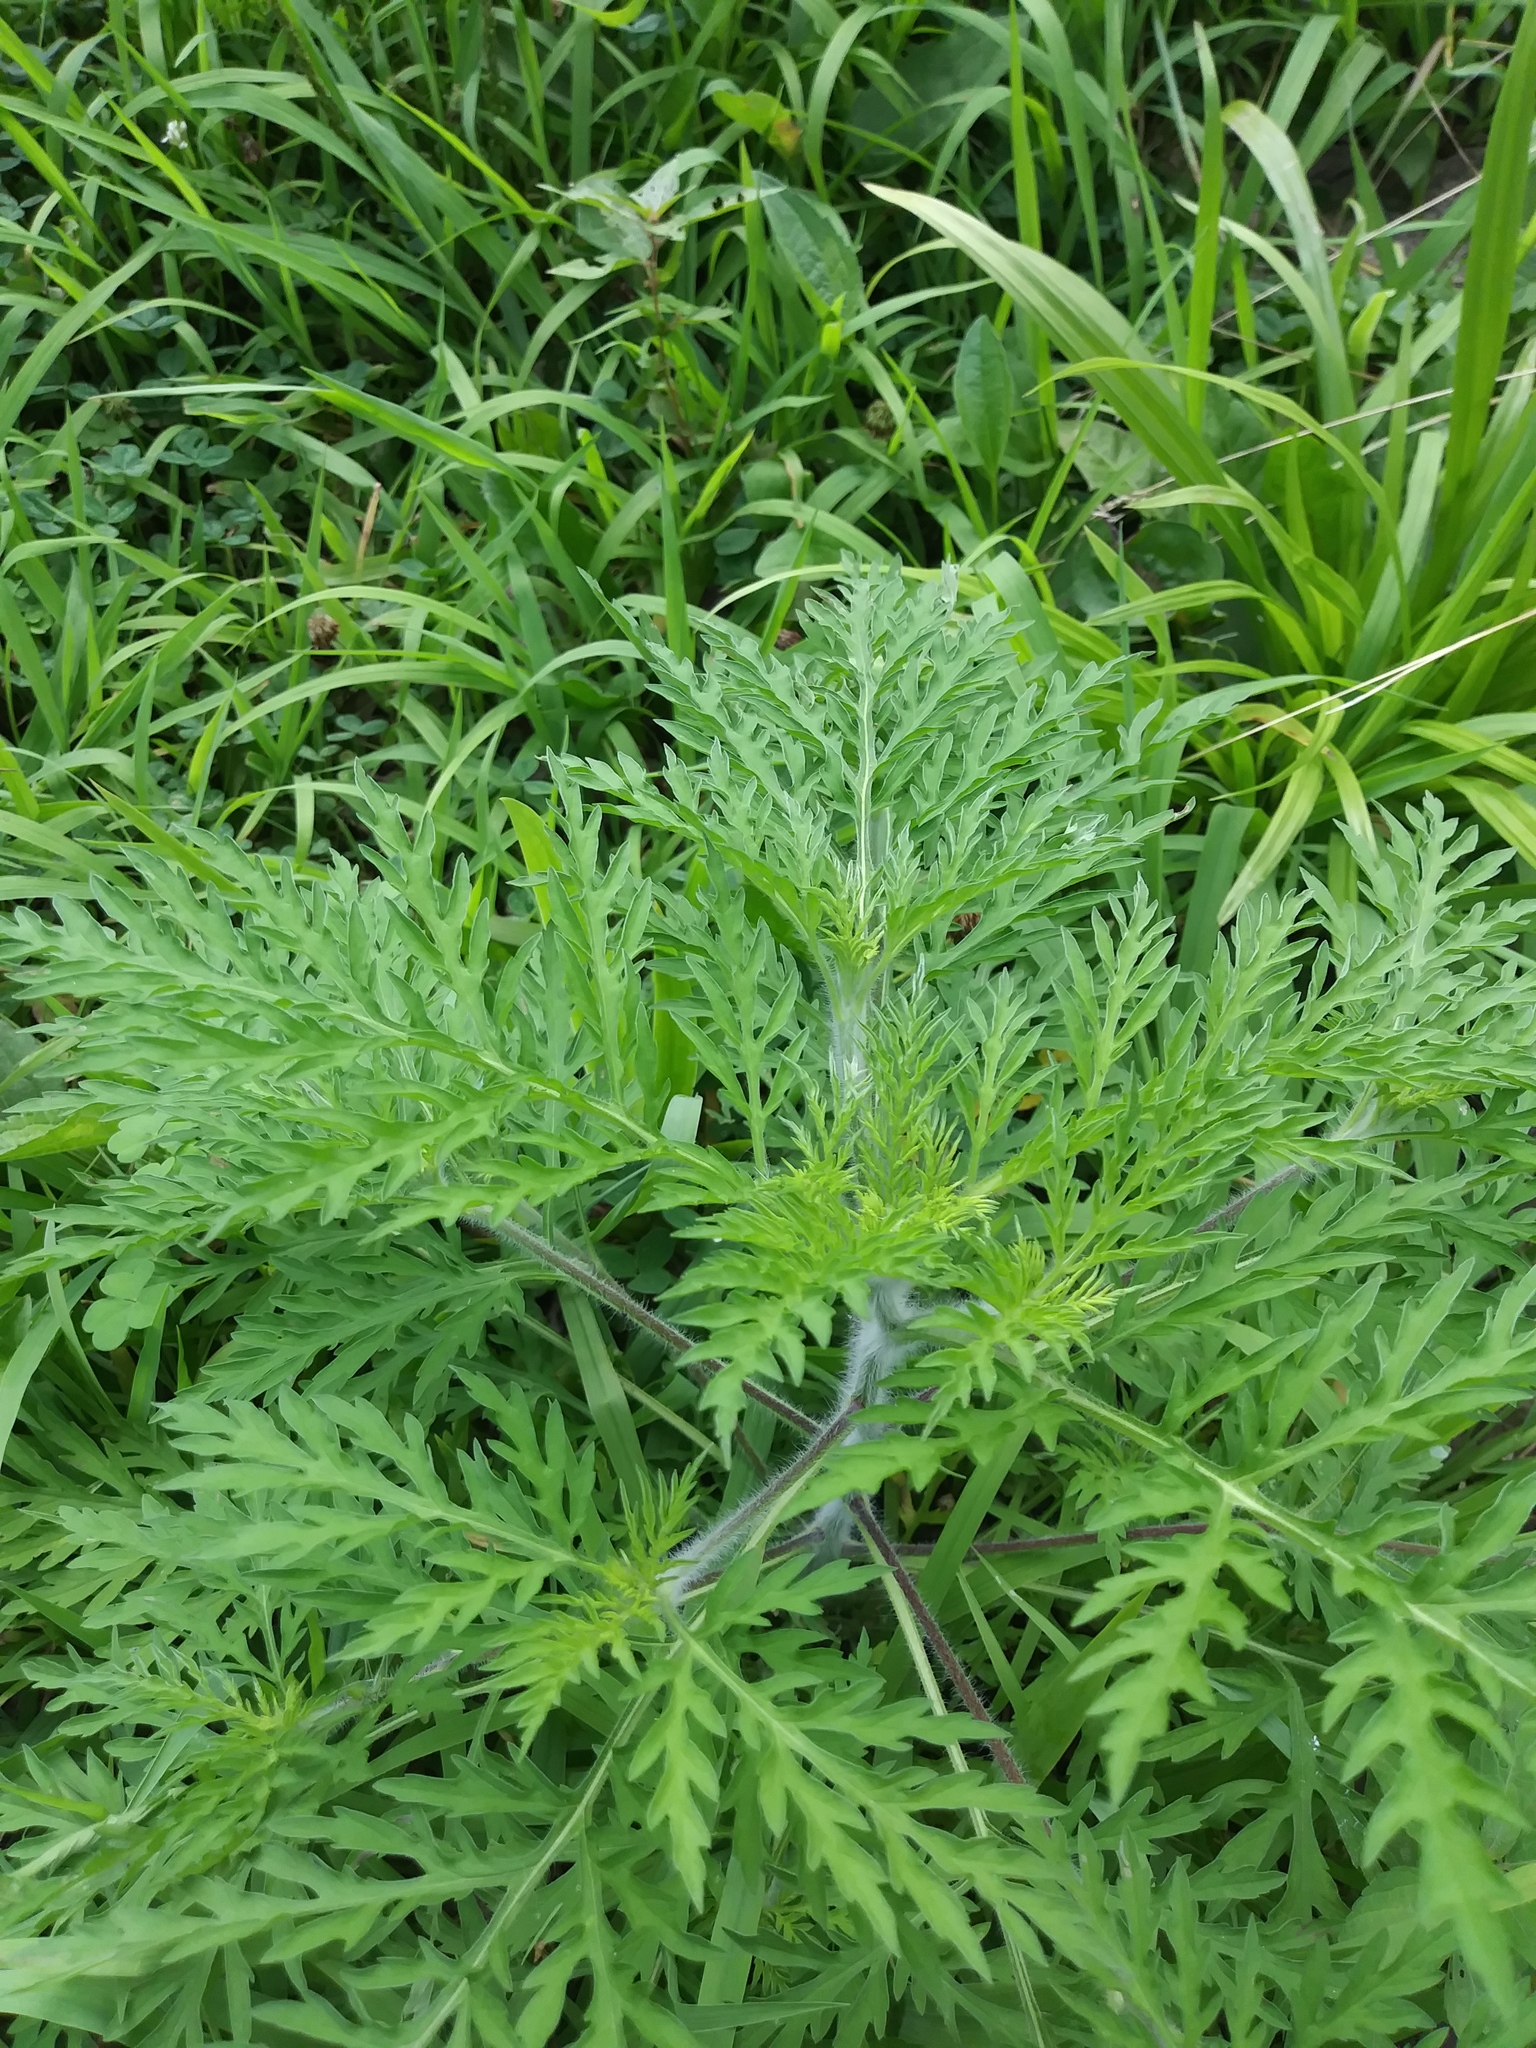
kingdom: Plantae
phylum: Tracheophyta
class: Magnoliopsida
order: Asterales
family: Asteraceae
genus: Ambrosia
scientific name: Ambrosia artemisiifolia
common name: Annual ragweed
